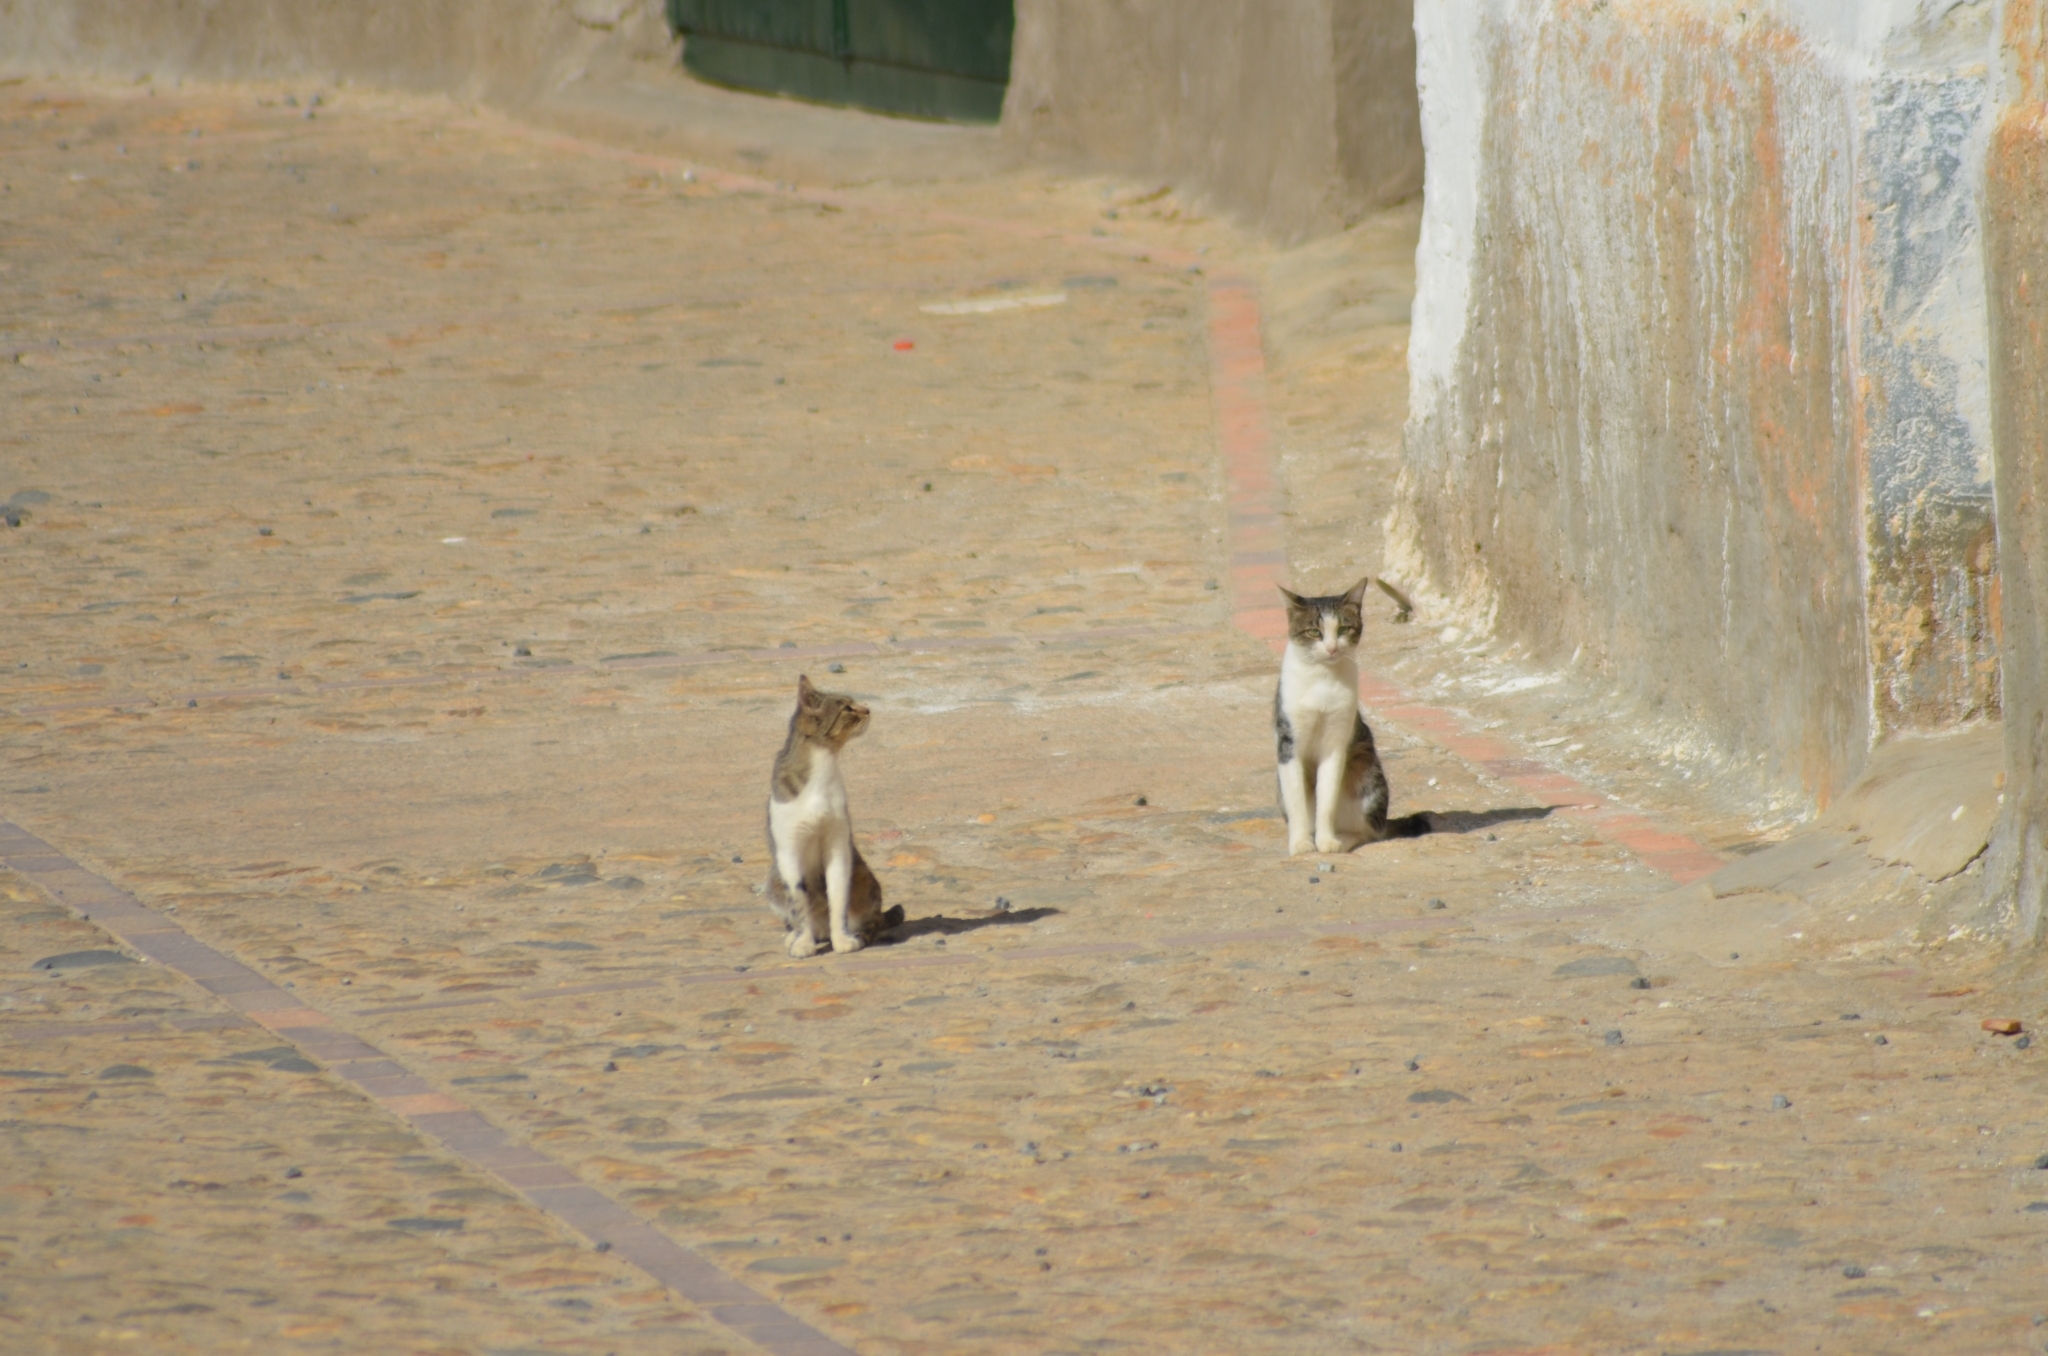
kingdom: Animalia
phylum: Chordata
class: Mammalia
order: Carnivora
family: Felidae
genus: Felis
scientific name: Felis catus
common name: Domestic cat
